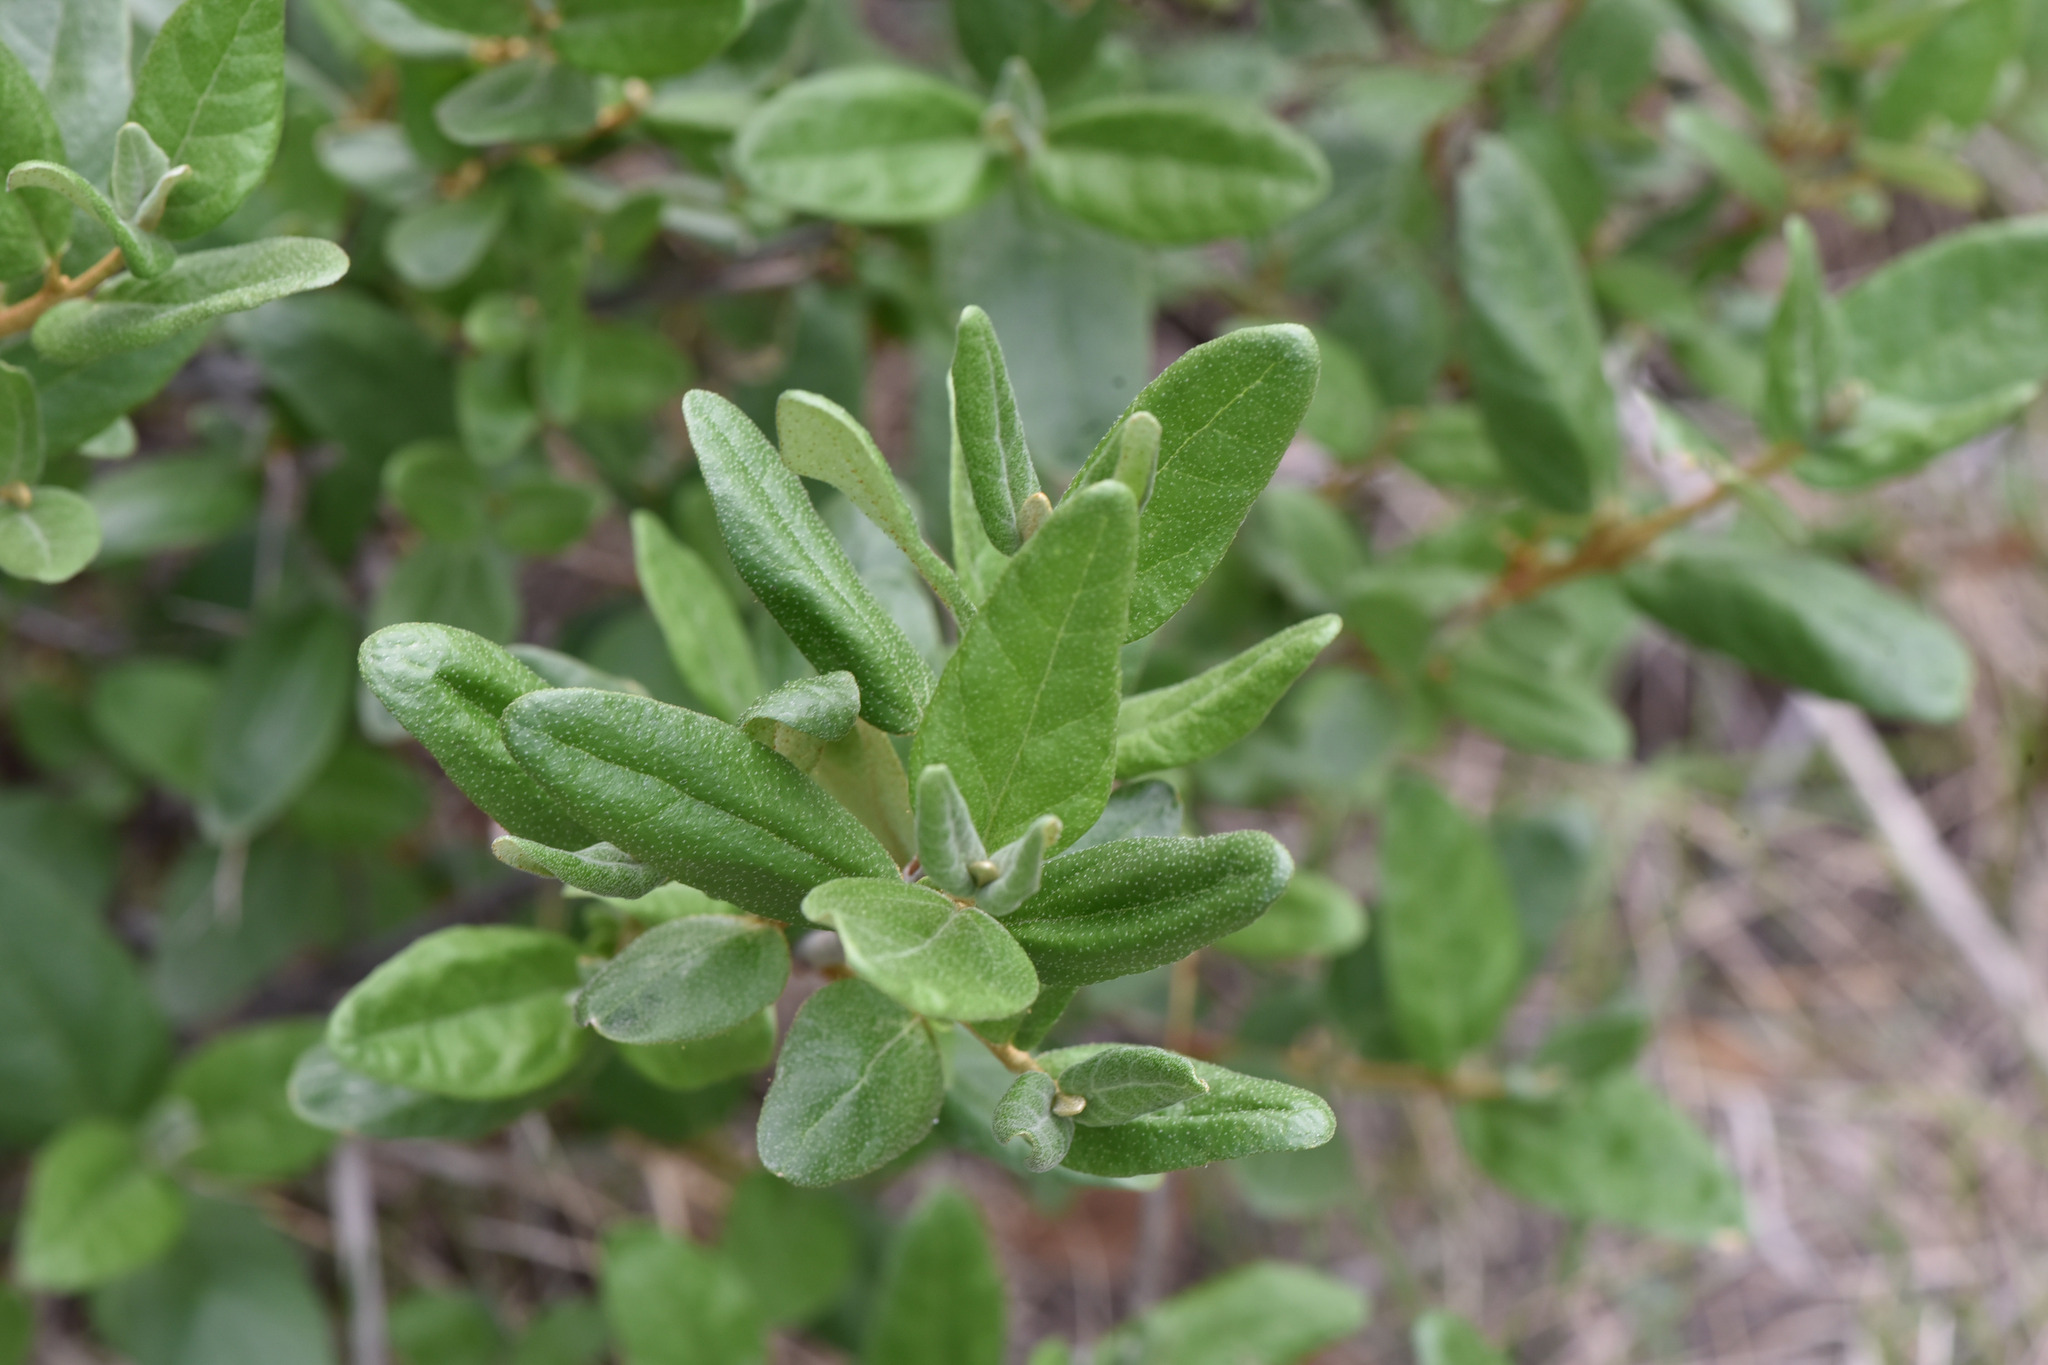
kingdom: Plantae
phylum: Tracheophyta
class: Magnoliopsida
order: Rosales
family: Elaeagnaceae
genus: Shepherdia
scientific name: Shepherdia canadensis
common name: Soapberry
